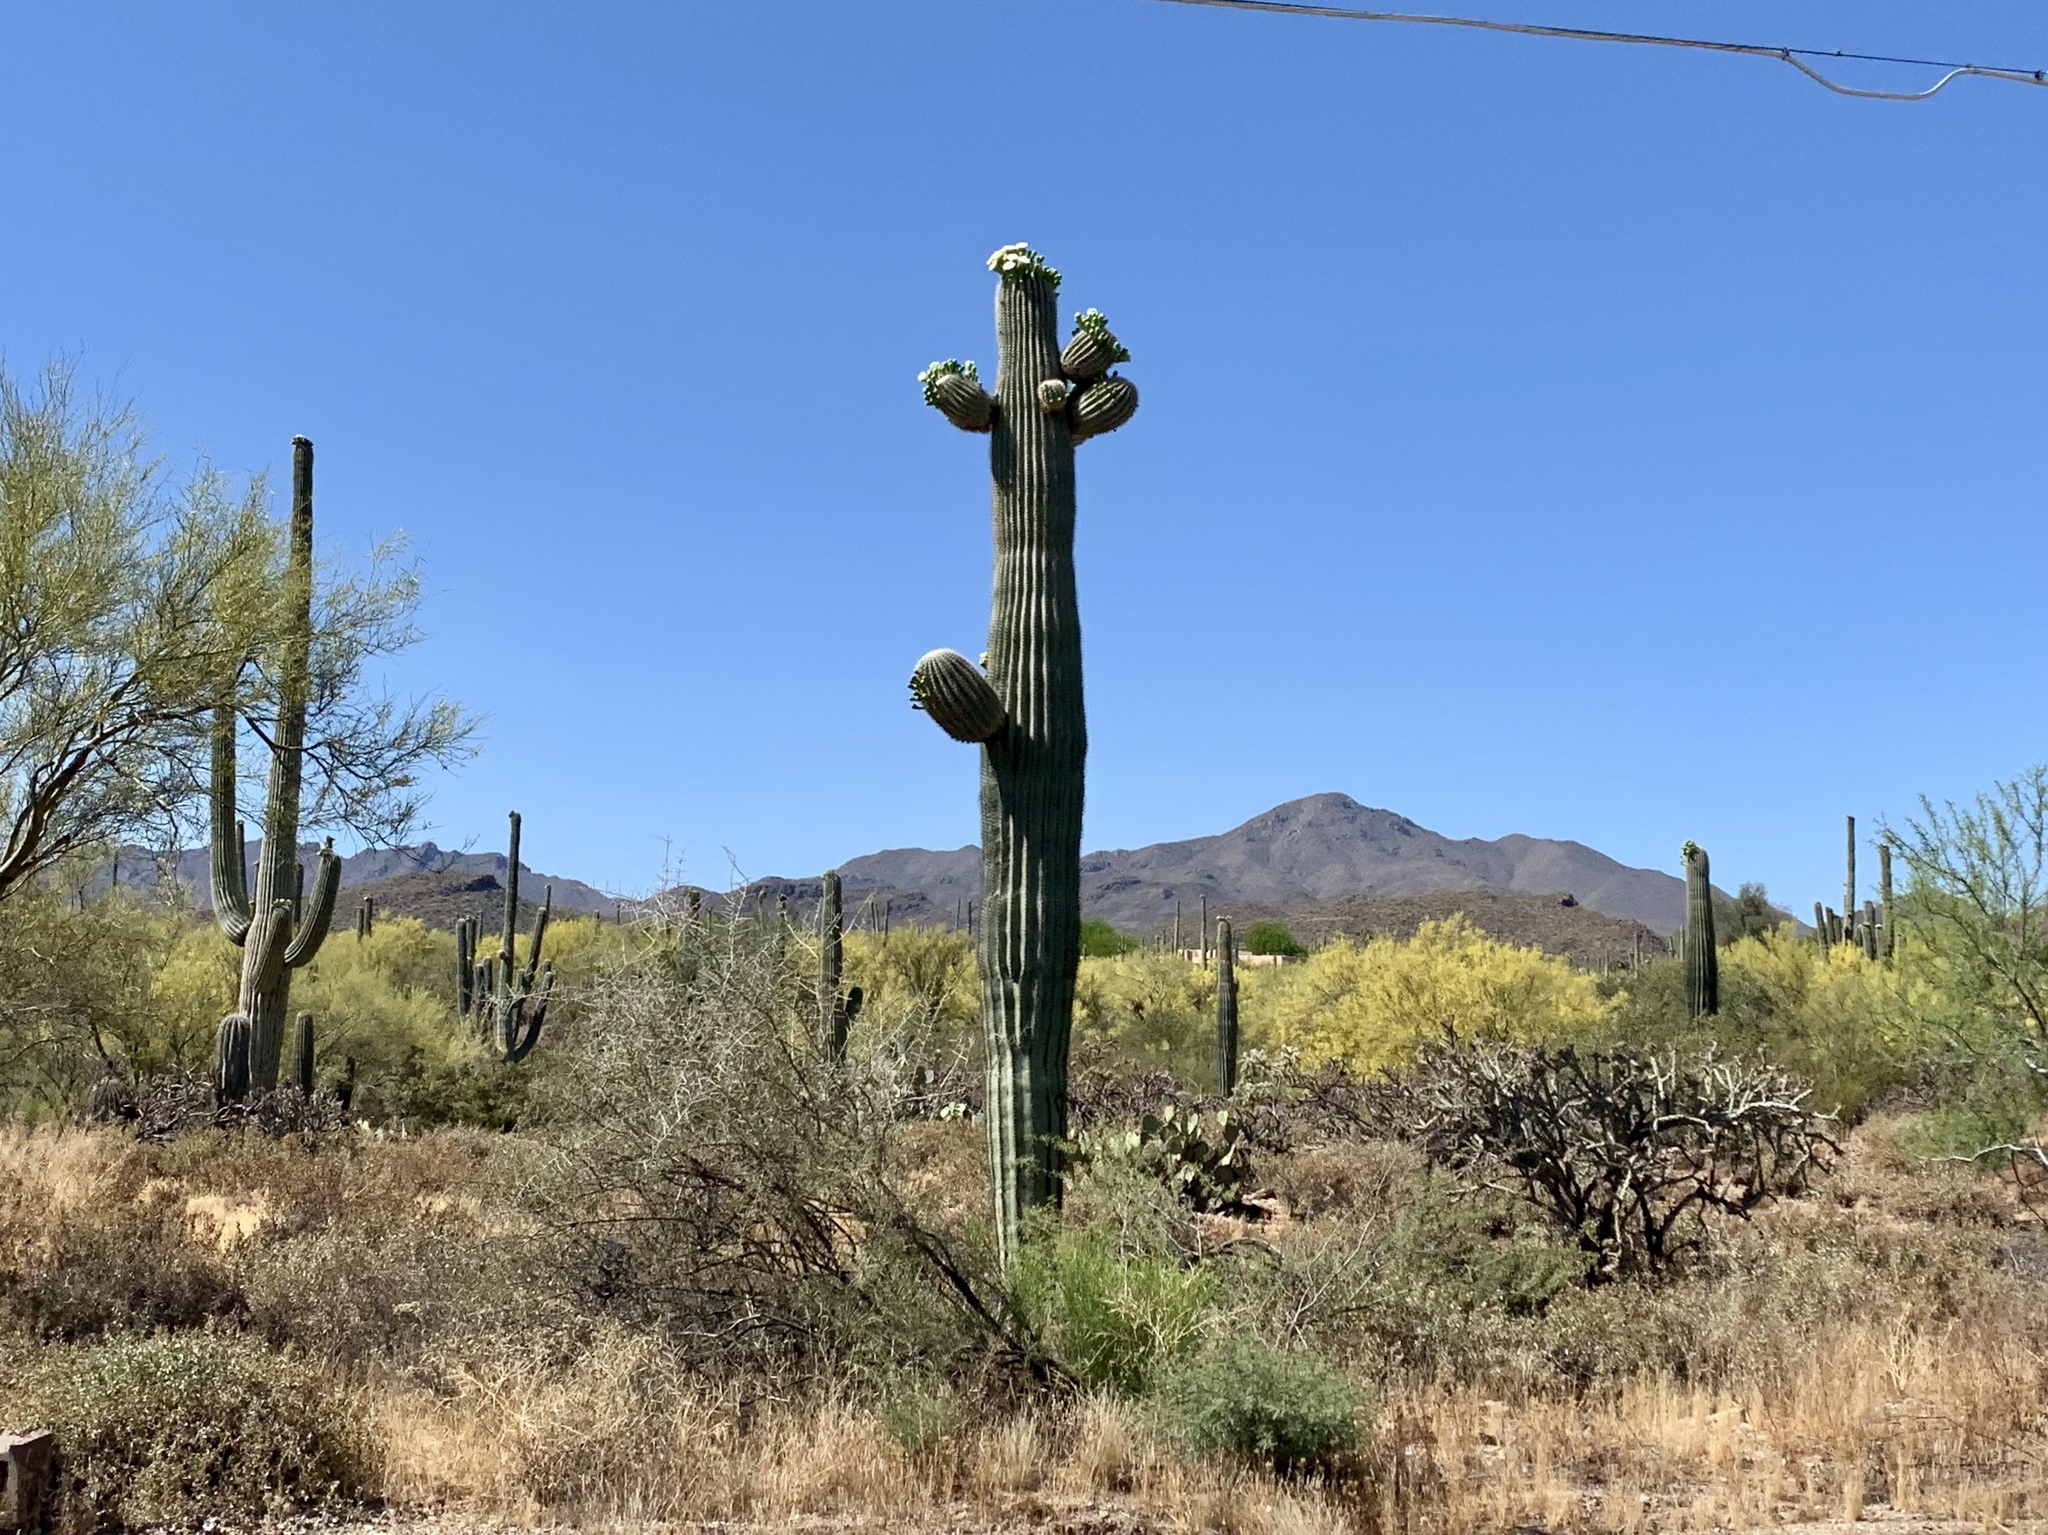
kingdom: Plantae
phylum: Tracheophyta
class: Magnoliopsida
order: Caryophyllales
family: Cactaceae
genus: Carnegiea
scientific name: Carnegiea gigantea
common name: Saguaro
